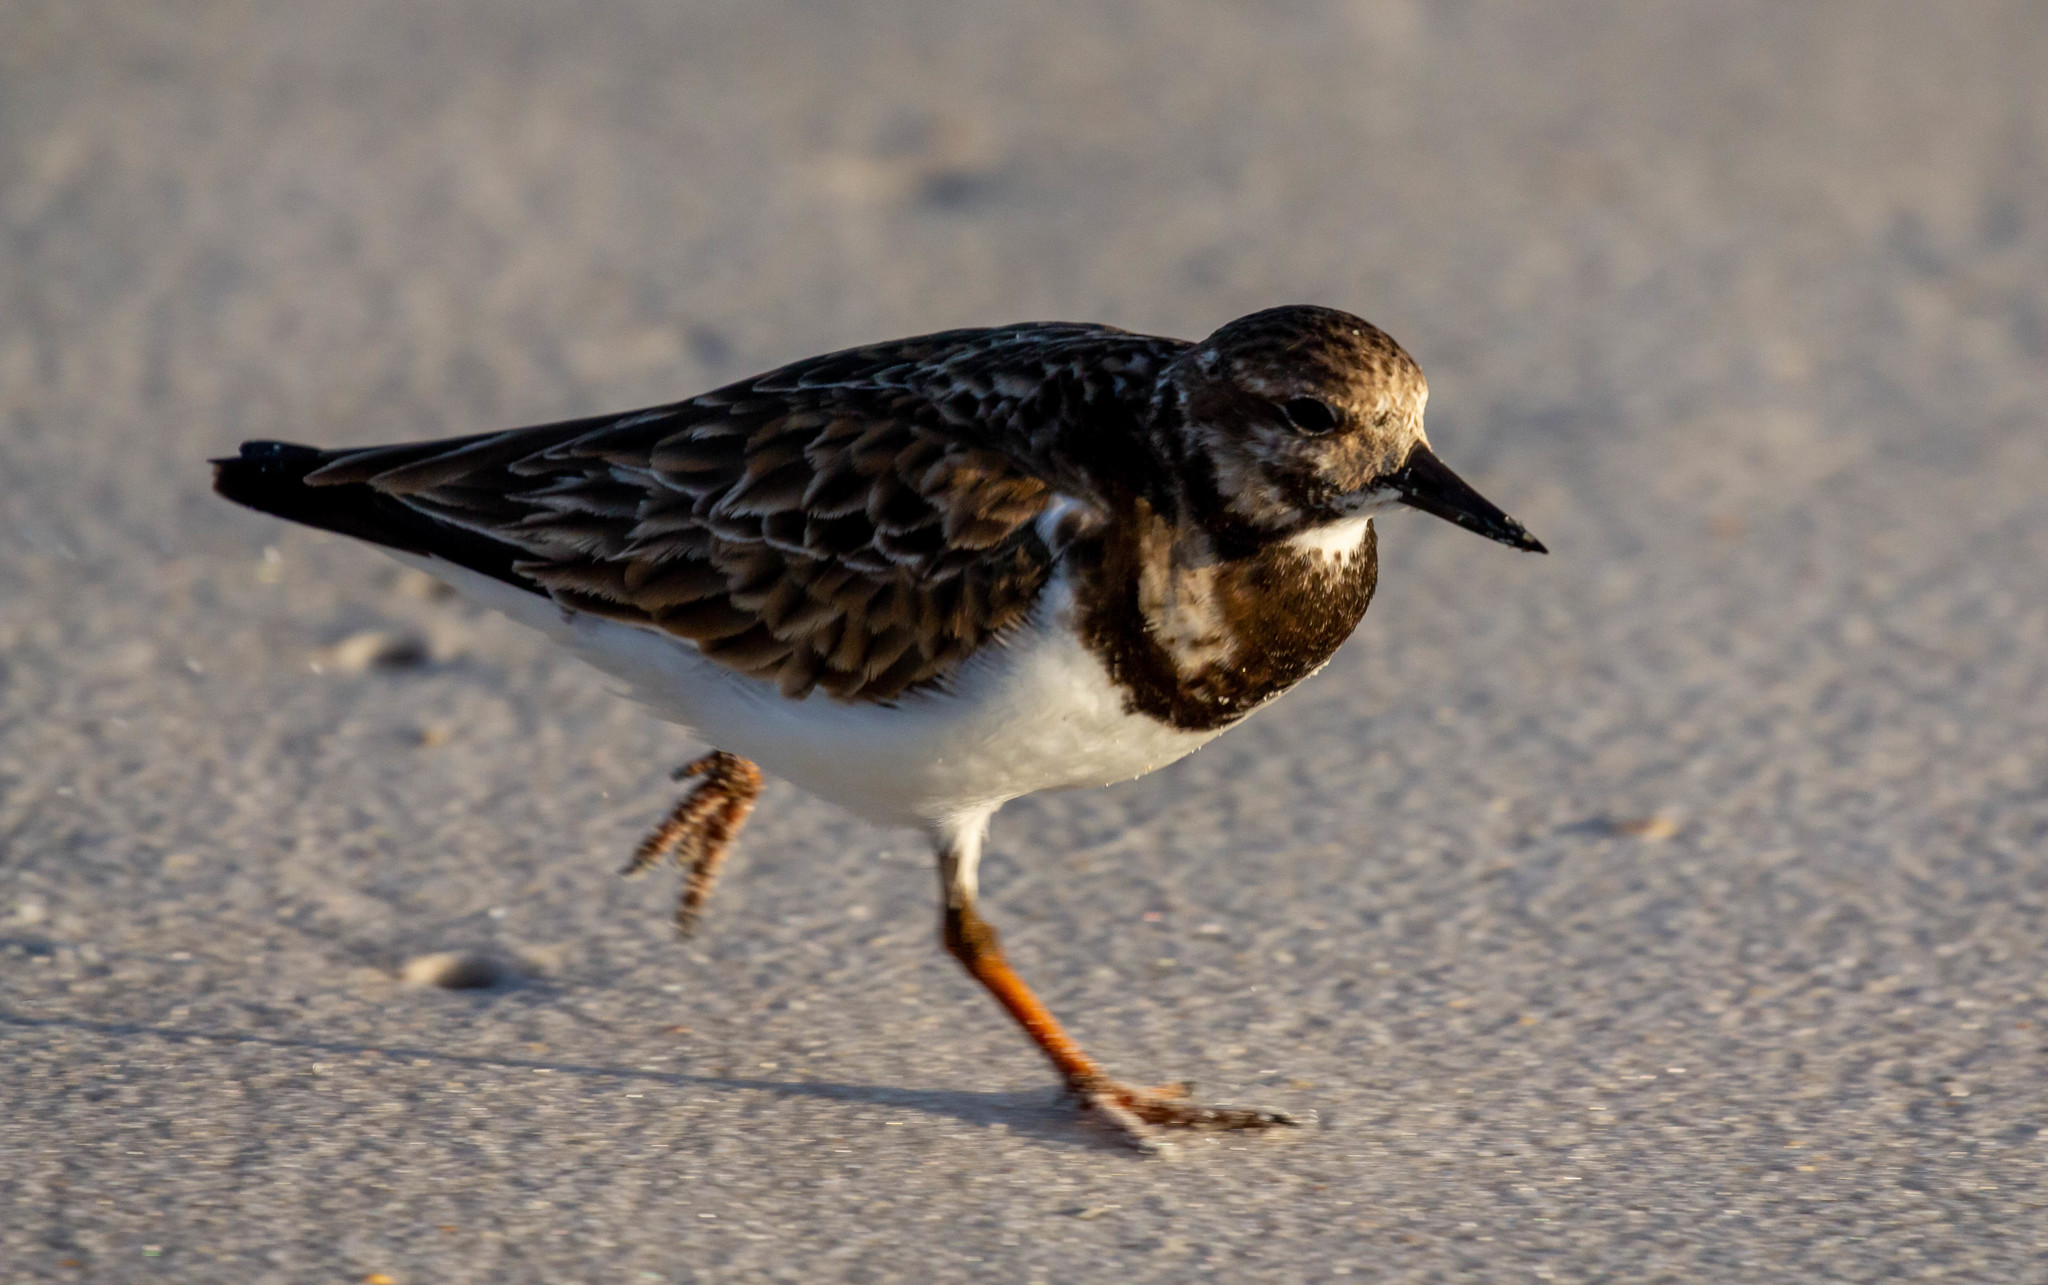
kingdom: Animalia
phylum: Chordata
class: Aves
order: Charadriiformes
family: Scolopacidae
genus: Arenaria
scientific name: Arenaria interpres
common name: Ruddy turnstone
